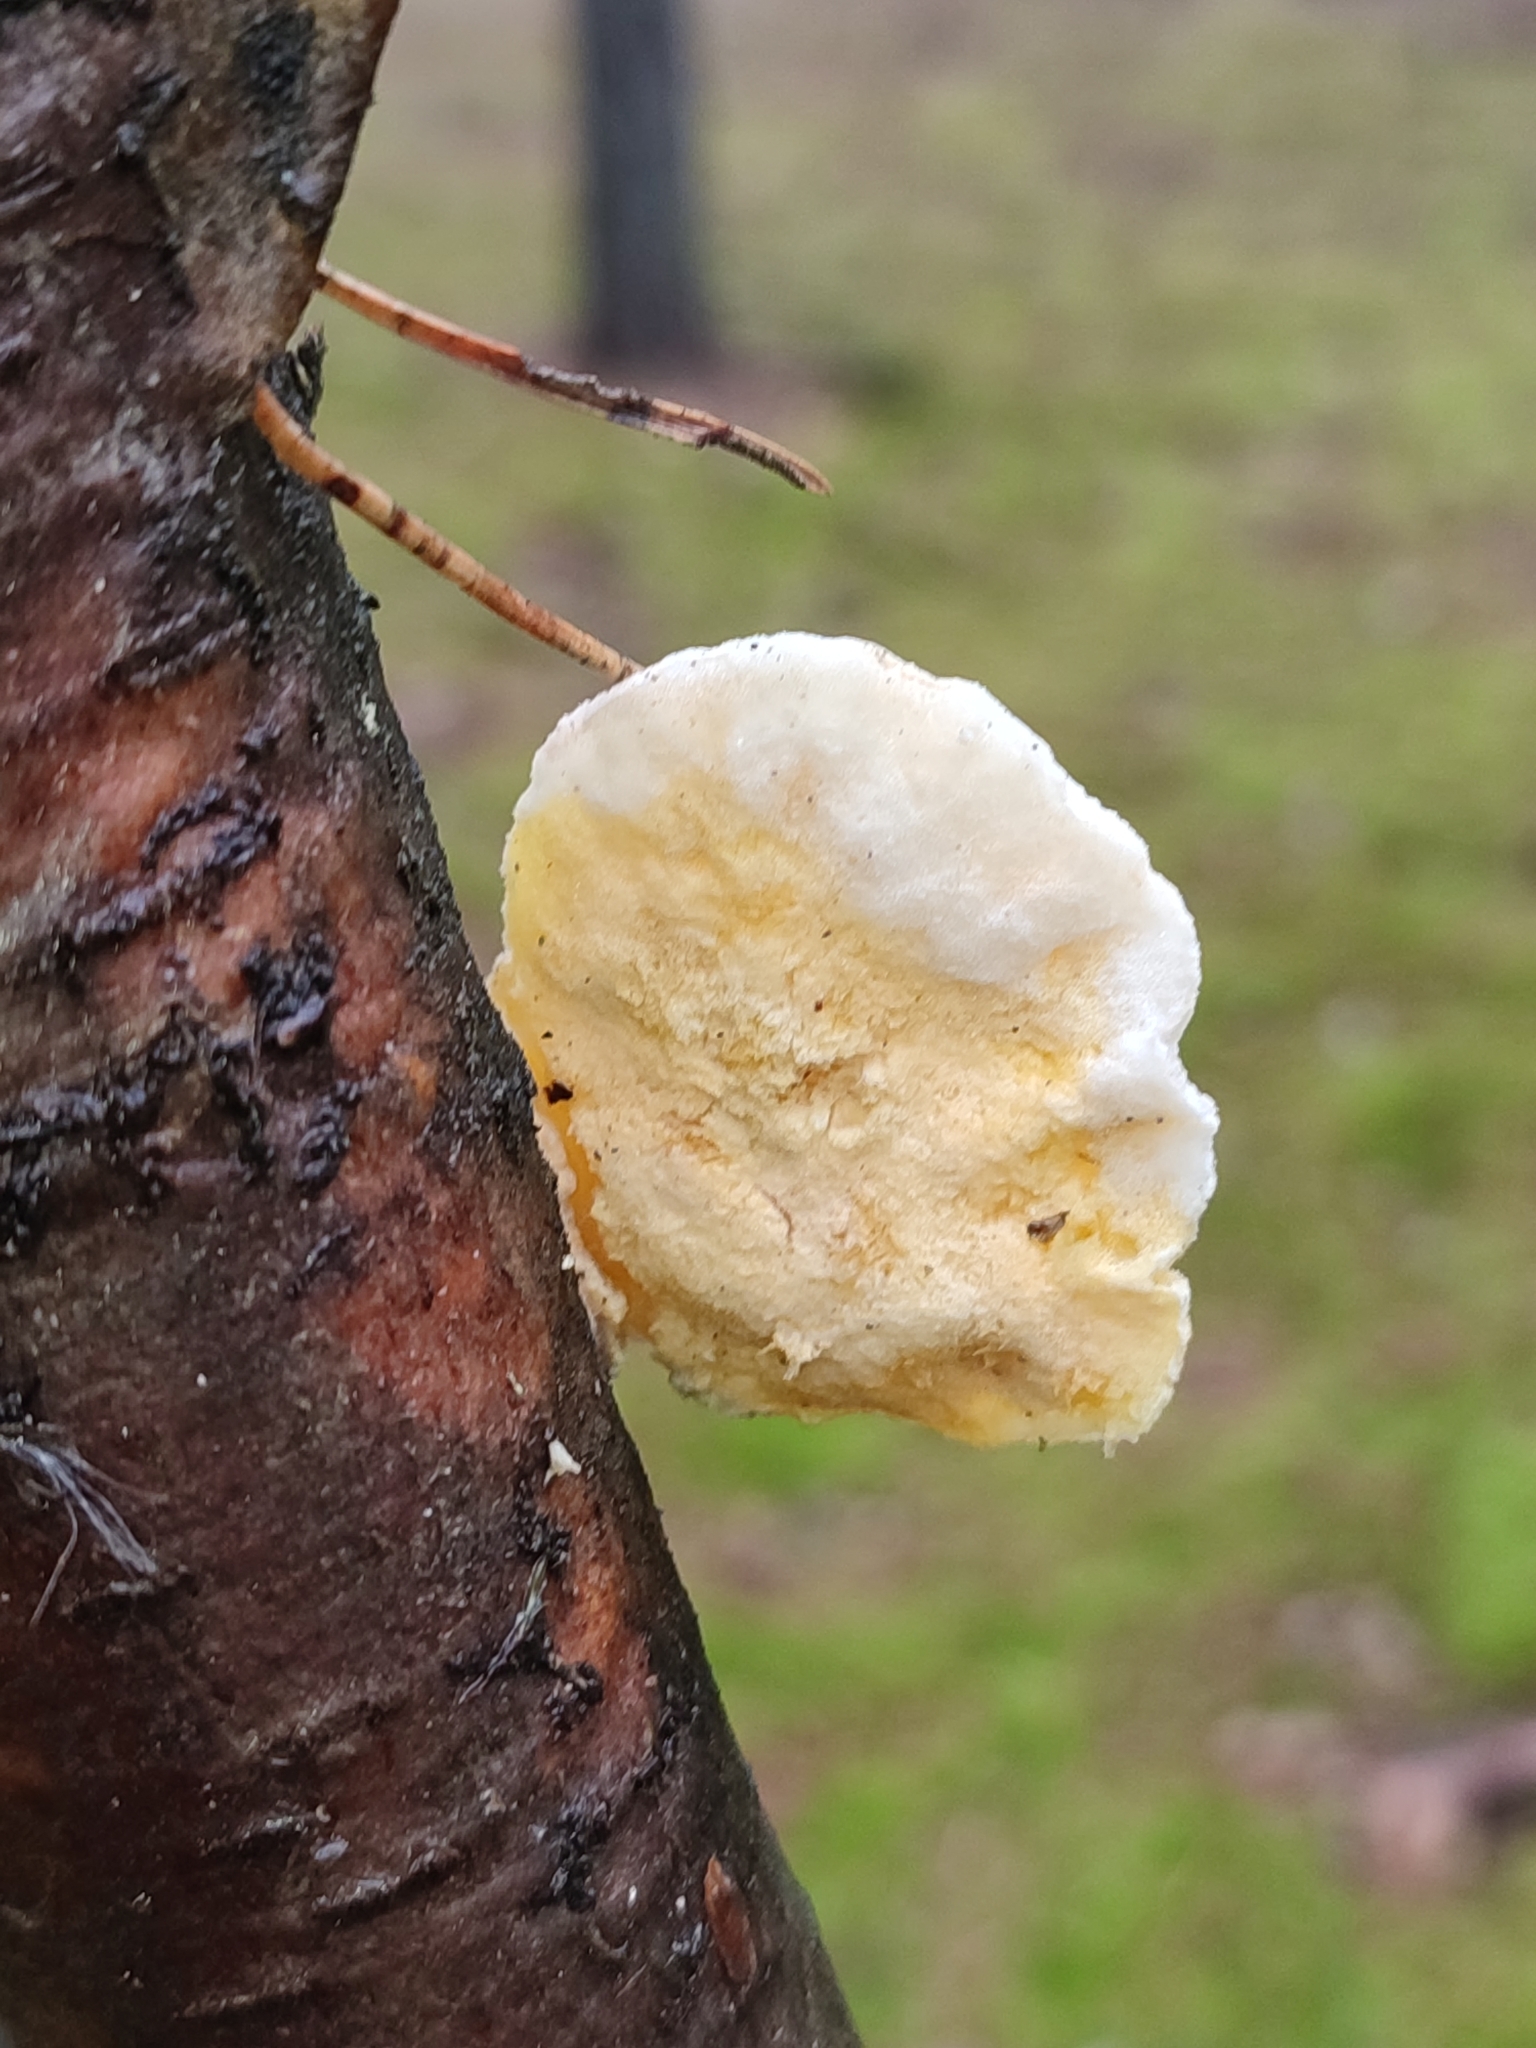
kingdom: Fungi
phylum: Basidiomycota
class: Agaricomycetes
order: Polyporales
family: Steccherinaceae
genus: Loweomyces
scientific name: Loweomyces wynneae
